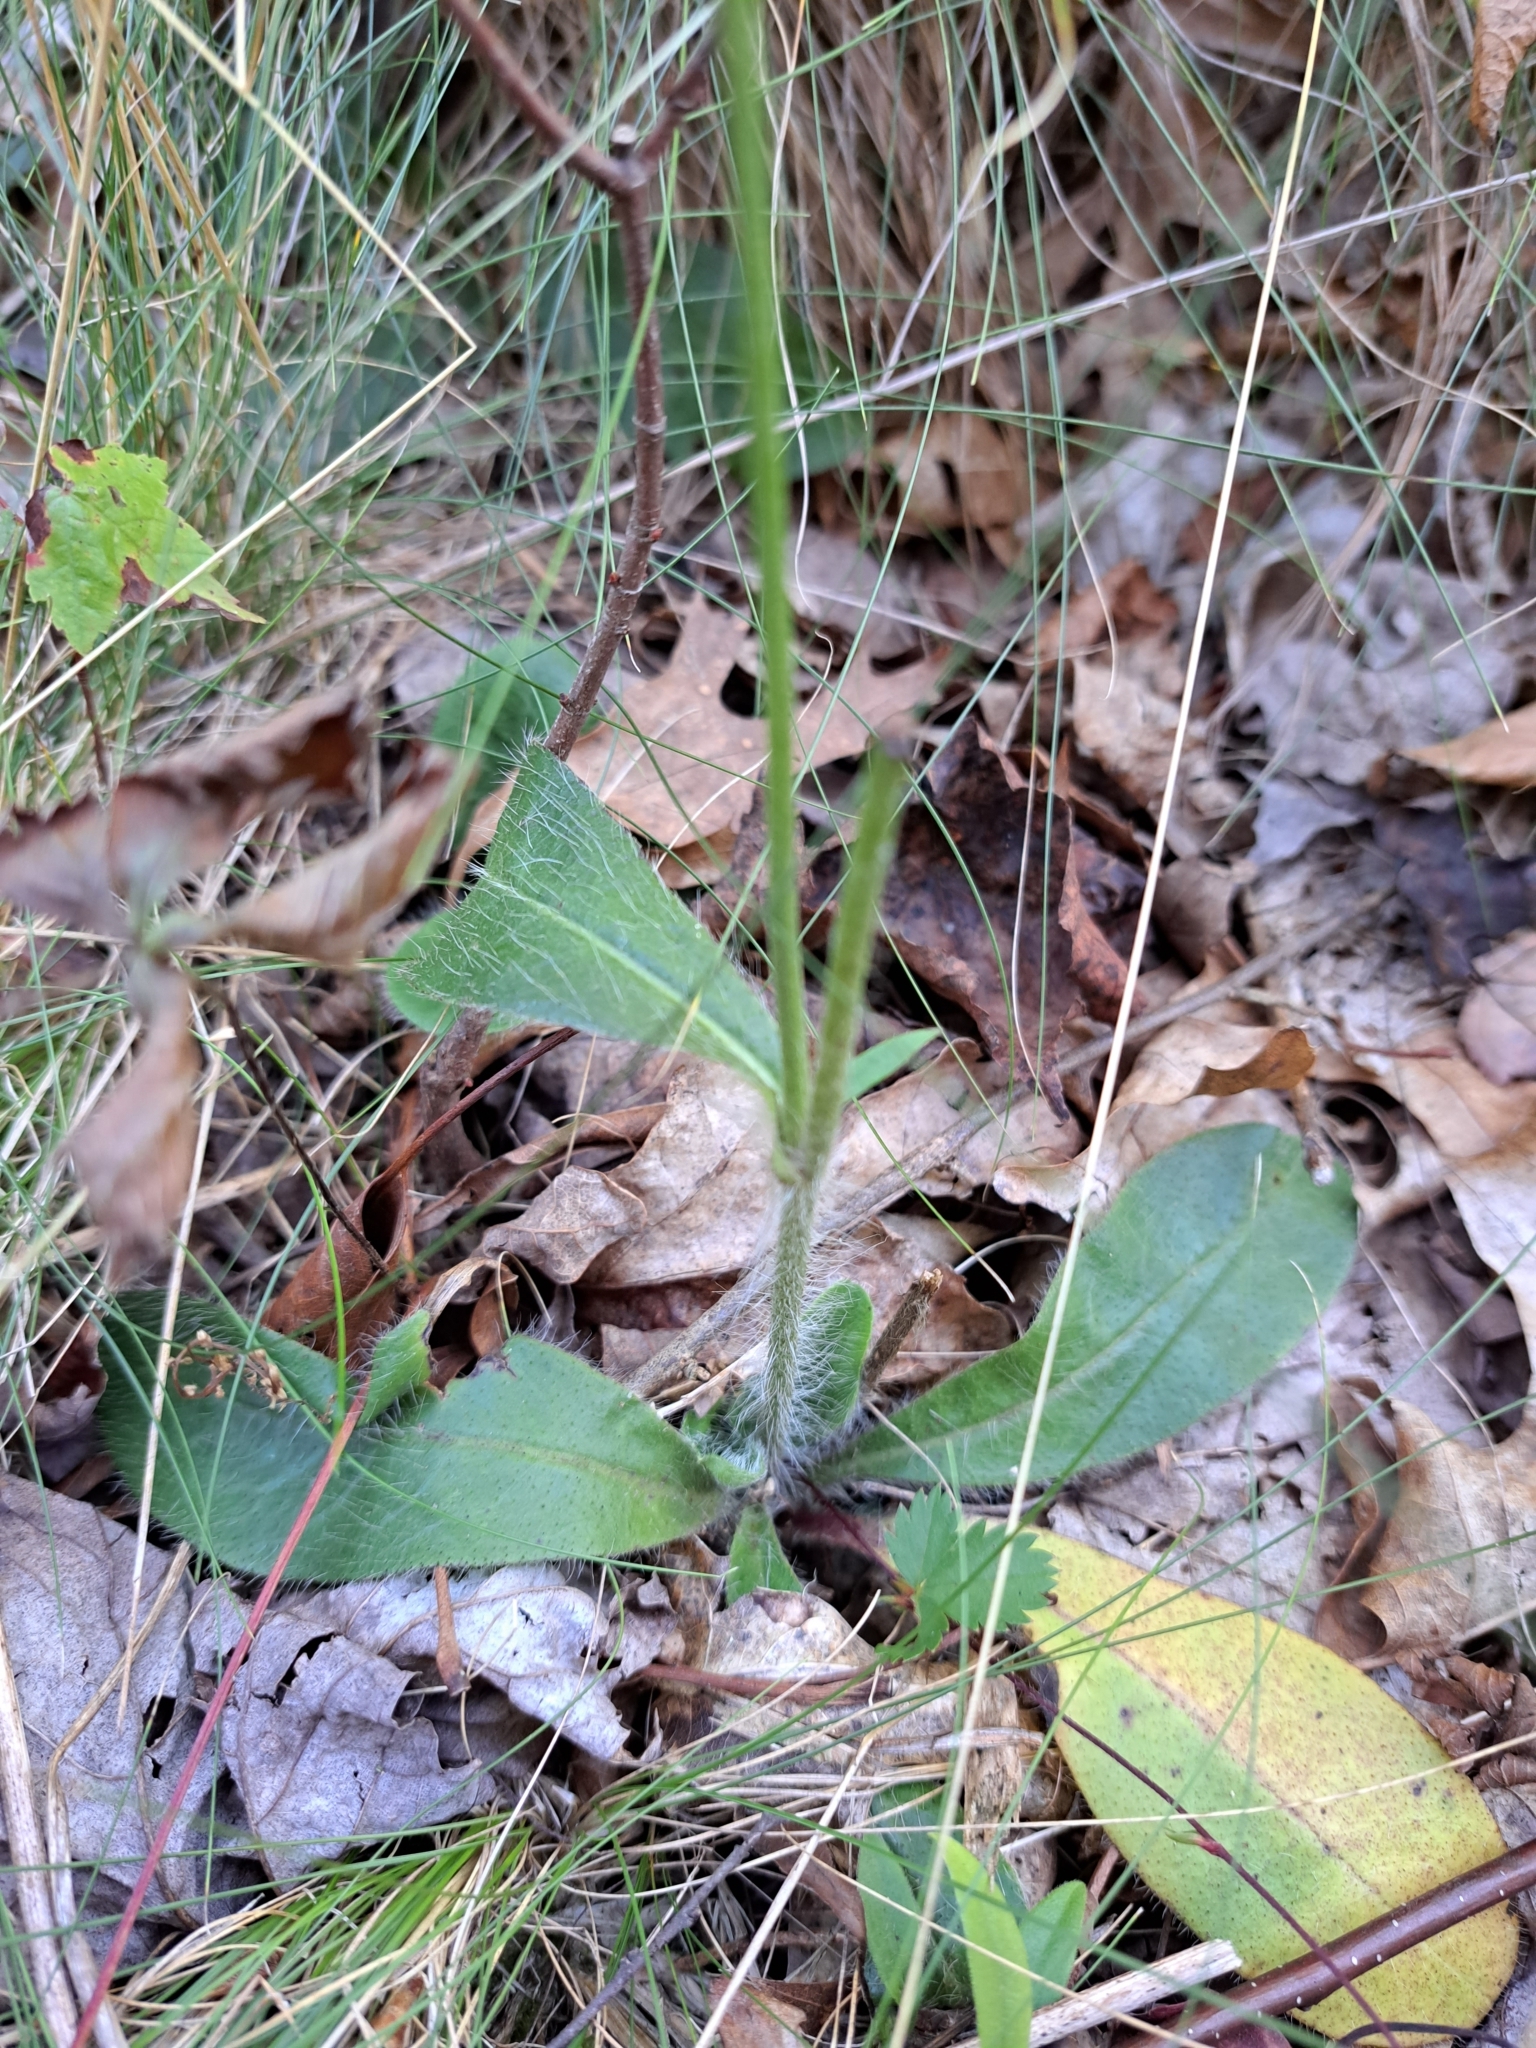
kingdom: Plantae
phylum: Tracheophyta
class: Magnoliopsida
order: Asterales
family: Asteraceae
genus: Hieracium
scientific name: Hieracium gronovii
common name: Beaked hawkweed
